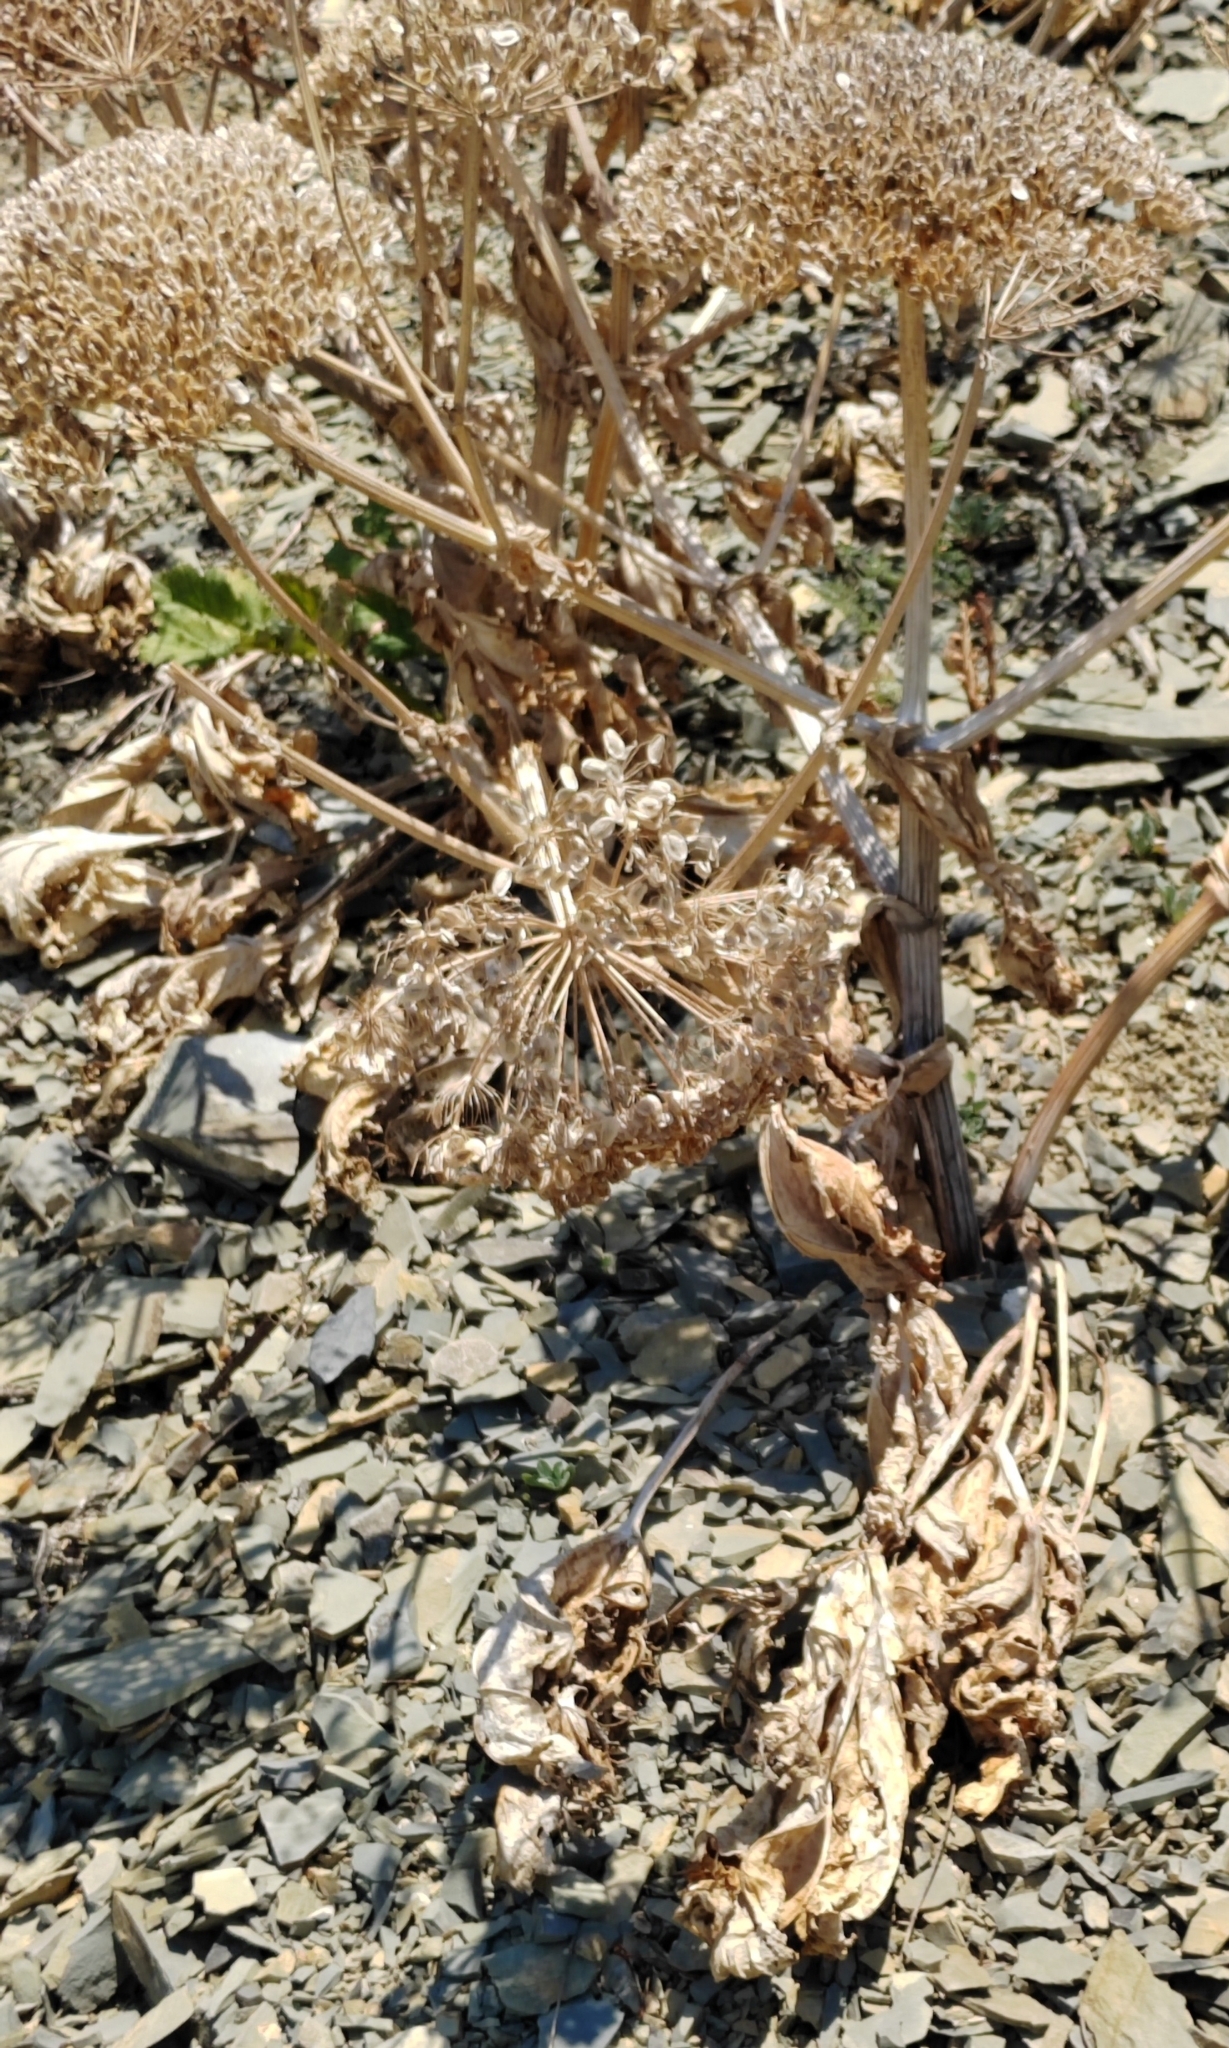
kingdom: Plantae
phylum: Tracheophyta
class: Magnoliopsida
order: Apiales
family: Apiaceae
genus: Heracleum
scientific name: Heracleum stevenii
